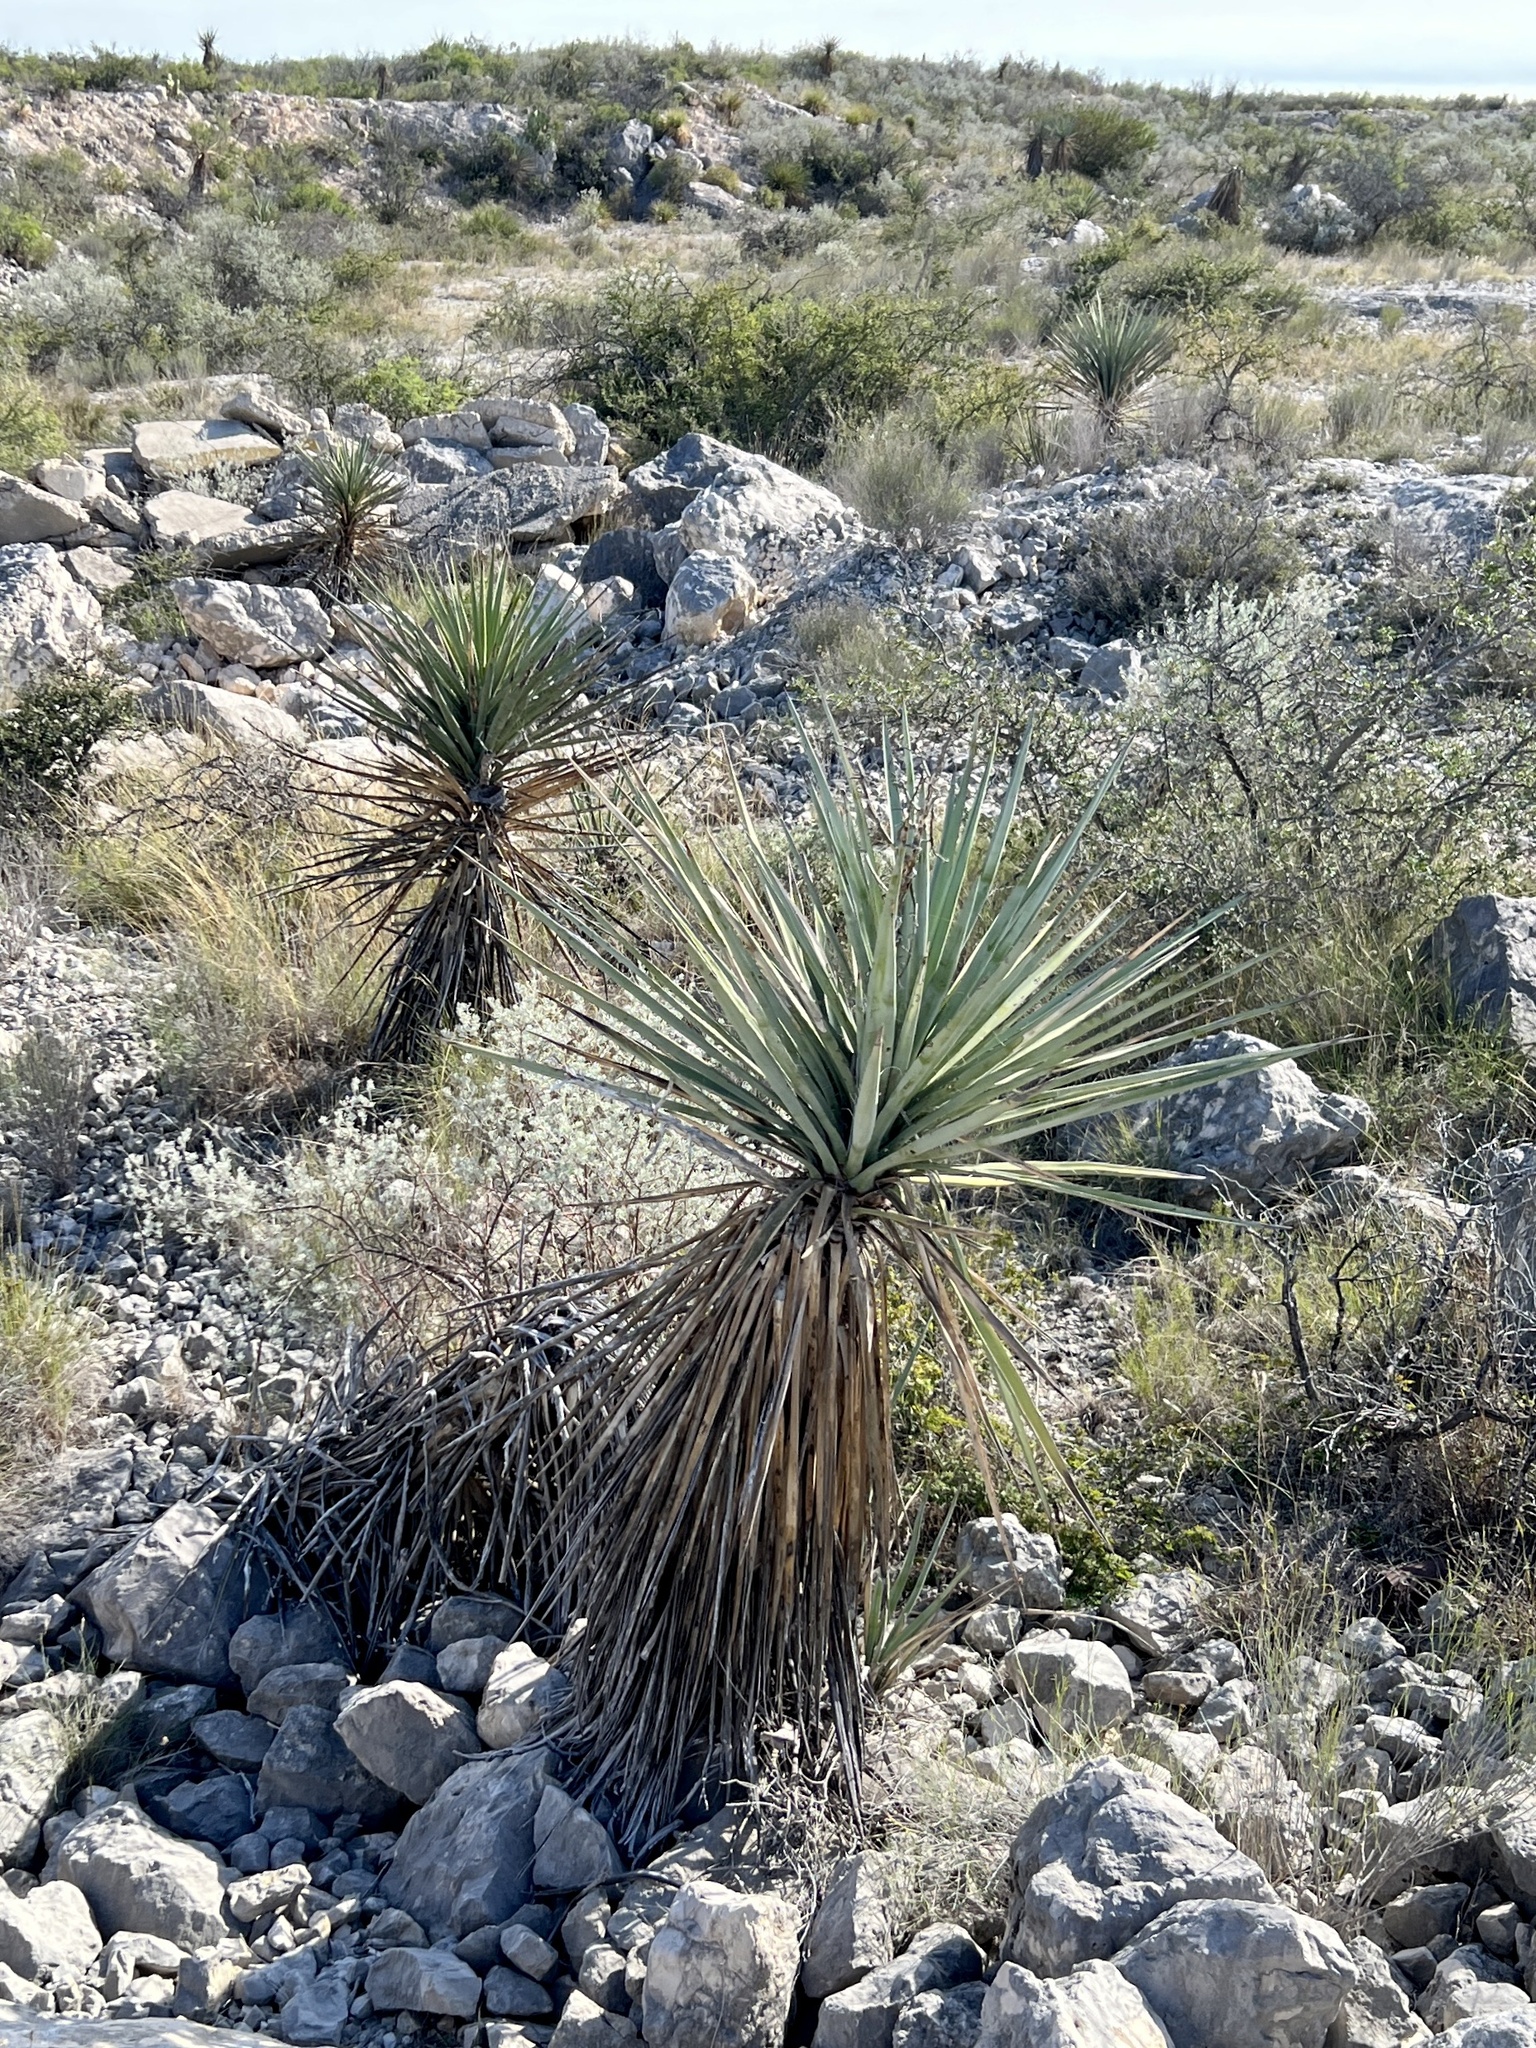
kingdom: Plantae
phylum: Tracheophyta
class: Liliopsida
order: Asparagales
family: Asparagaceae
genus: Yucca
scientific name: Yucca treculiana
